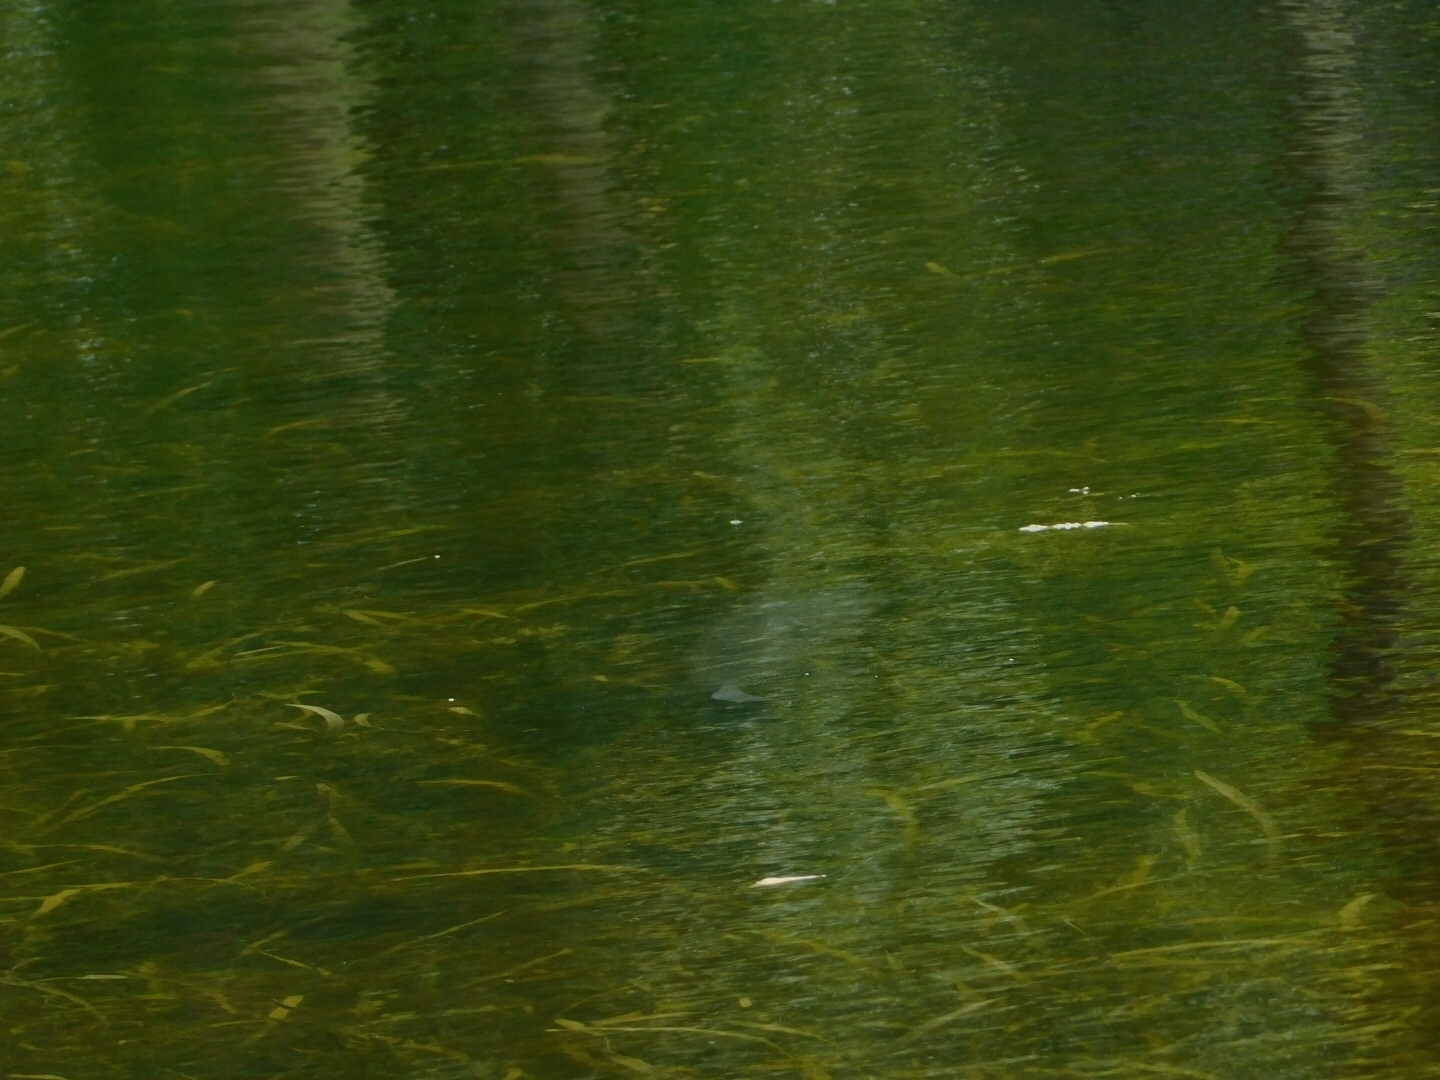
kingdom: Animalia
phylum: Chordata
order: Cypriniformes
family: Cyprinidae
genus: Ctenopharyngodon
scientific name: Ctenopharyngodon idella
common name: Grass carp
